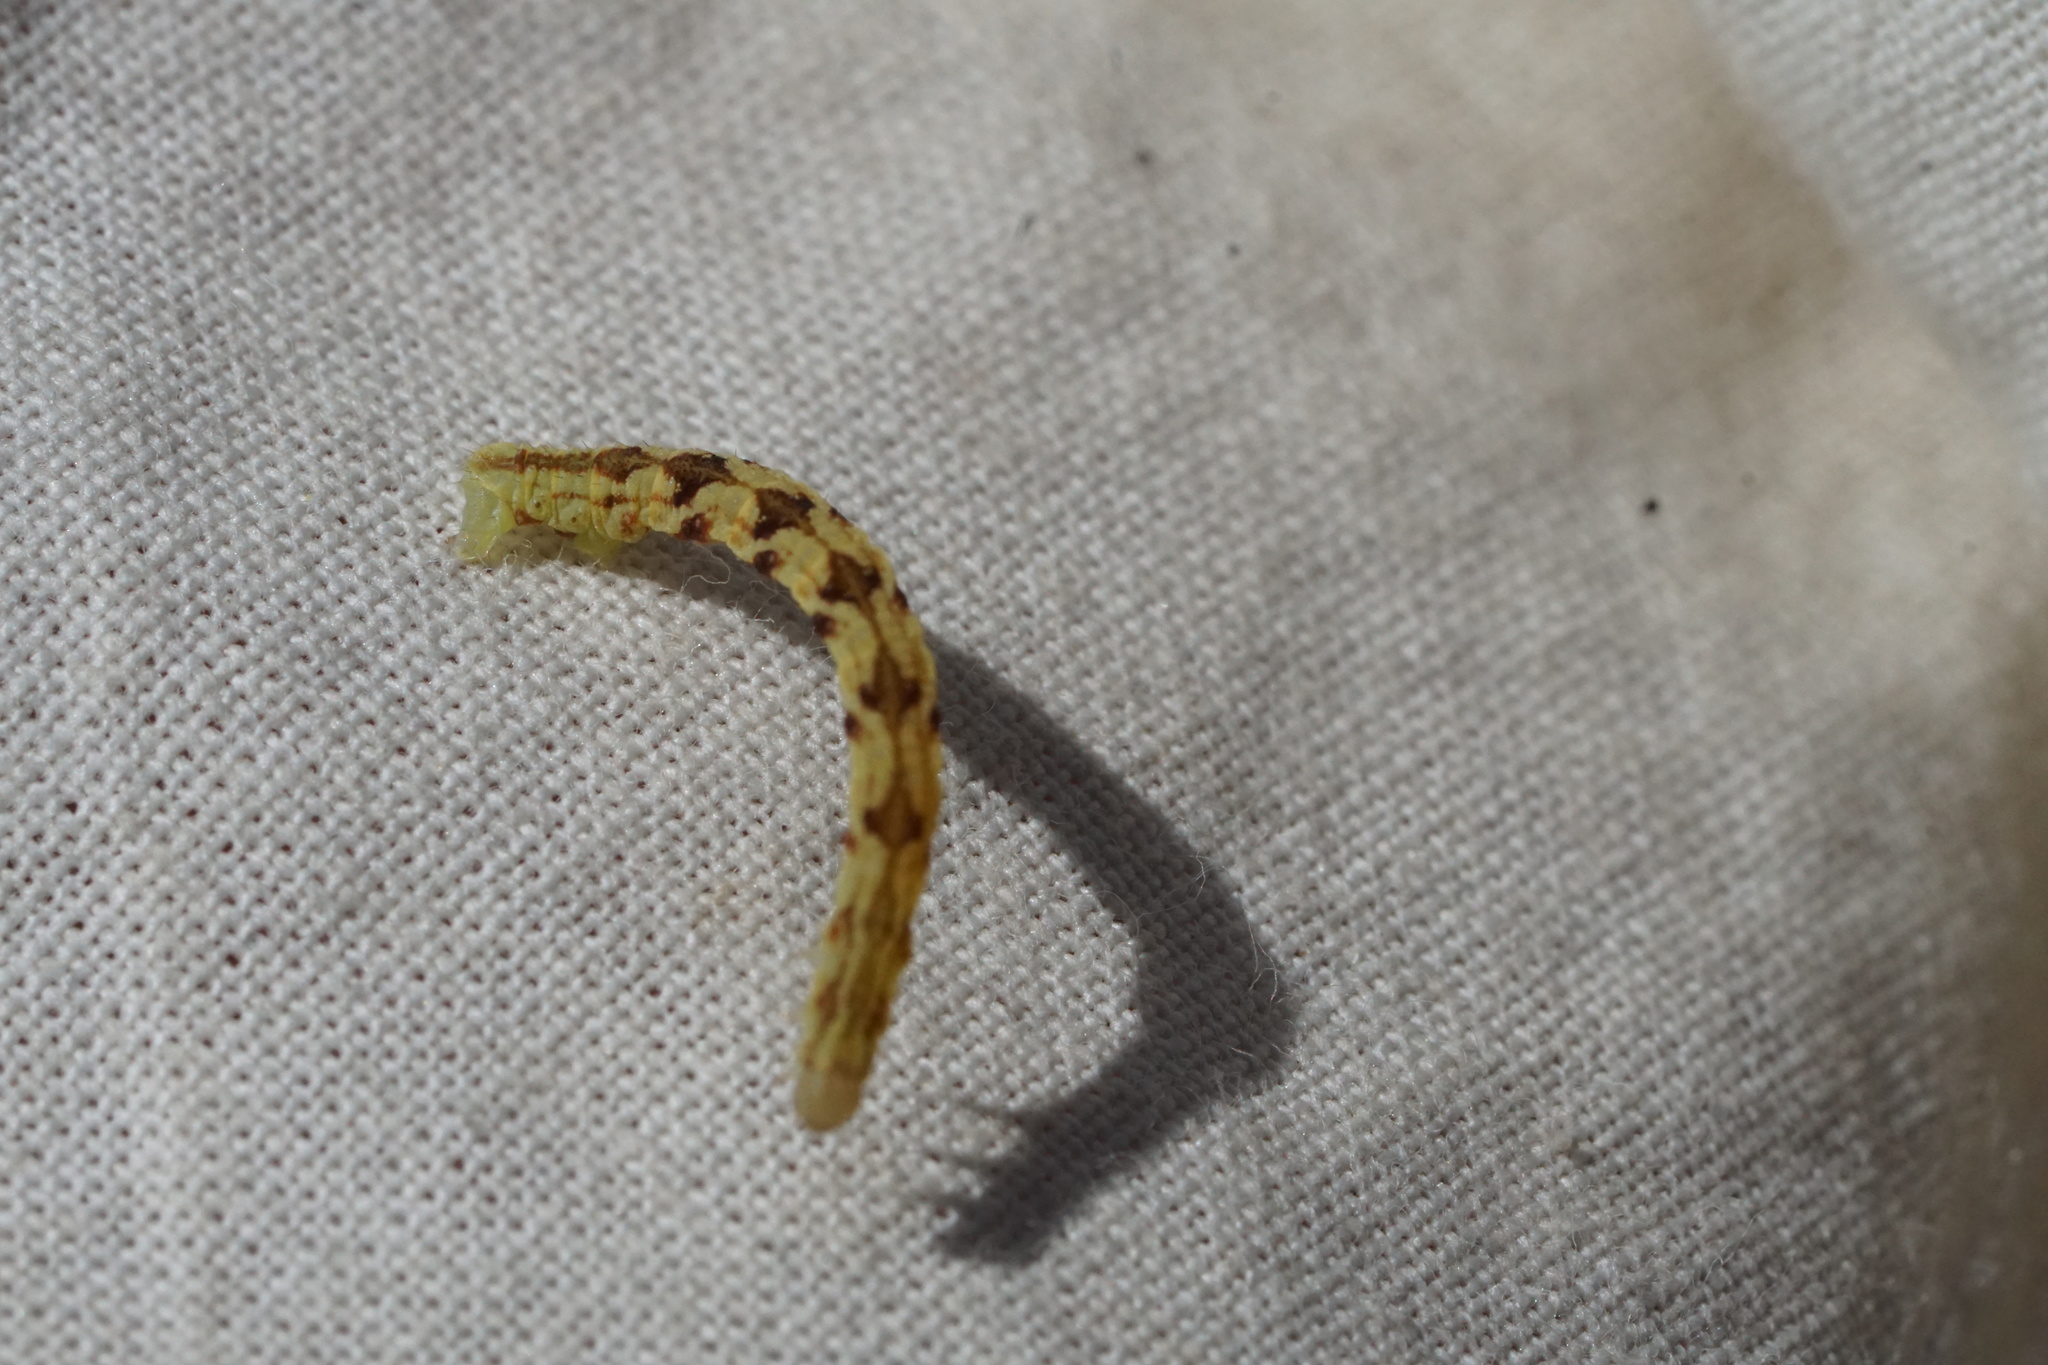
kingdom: Animalia
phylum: Arthropoda
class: Insecta
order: Lepidoptera
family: Geometridae
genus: Eupithecia
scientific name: Eupithecia miserulata
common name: Common eupithecia
